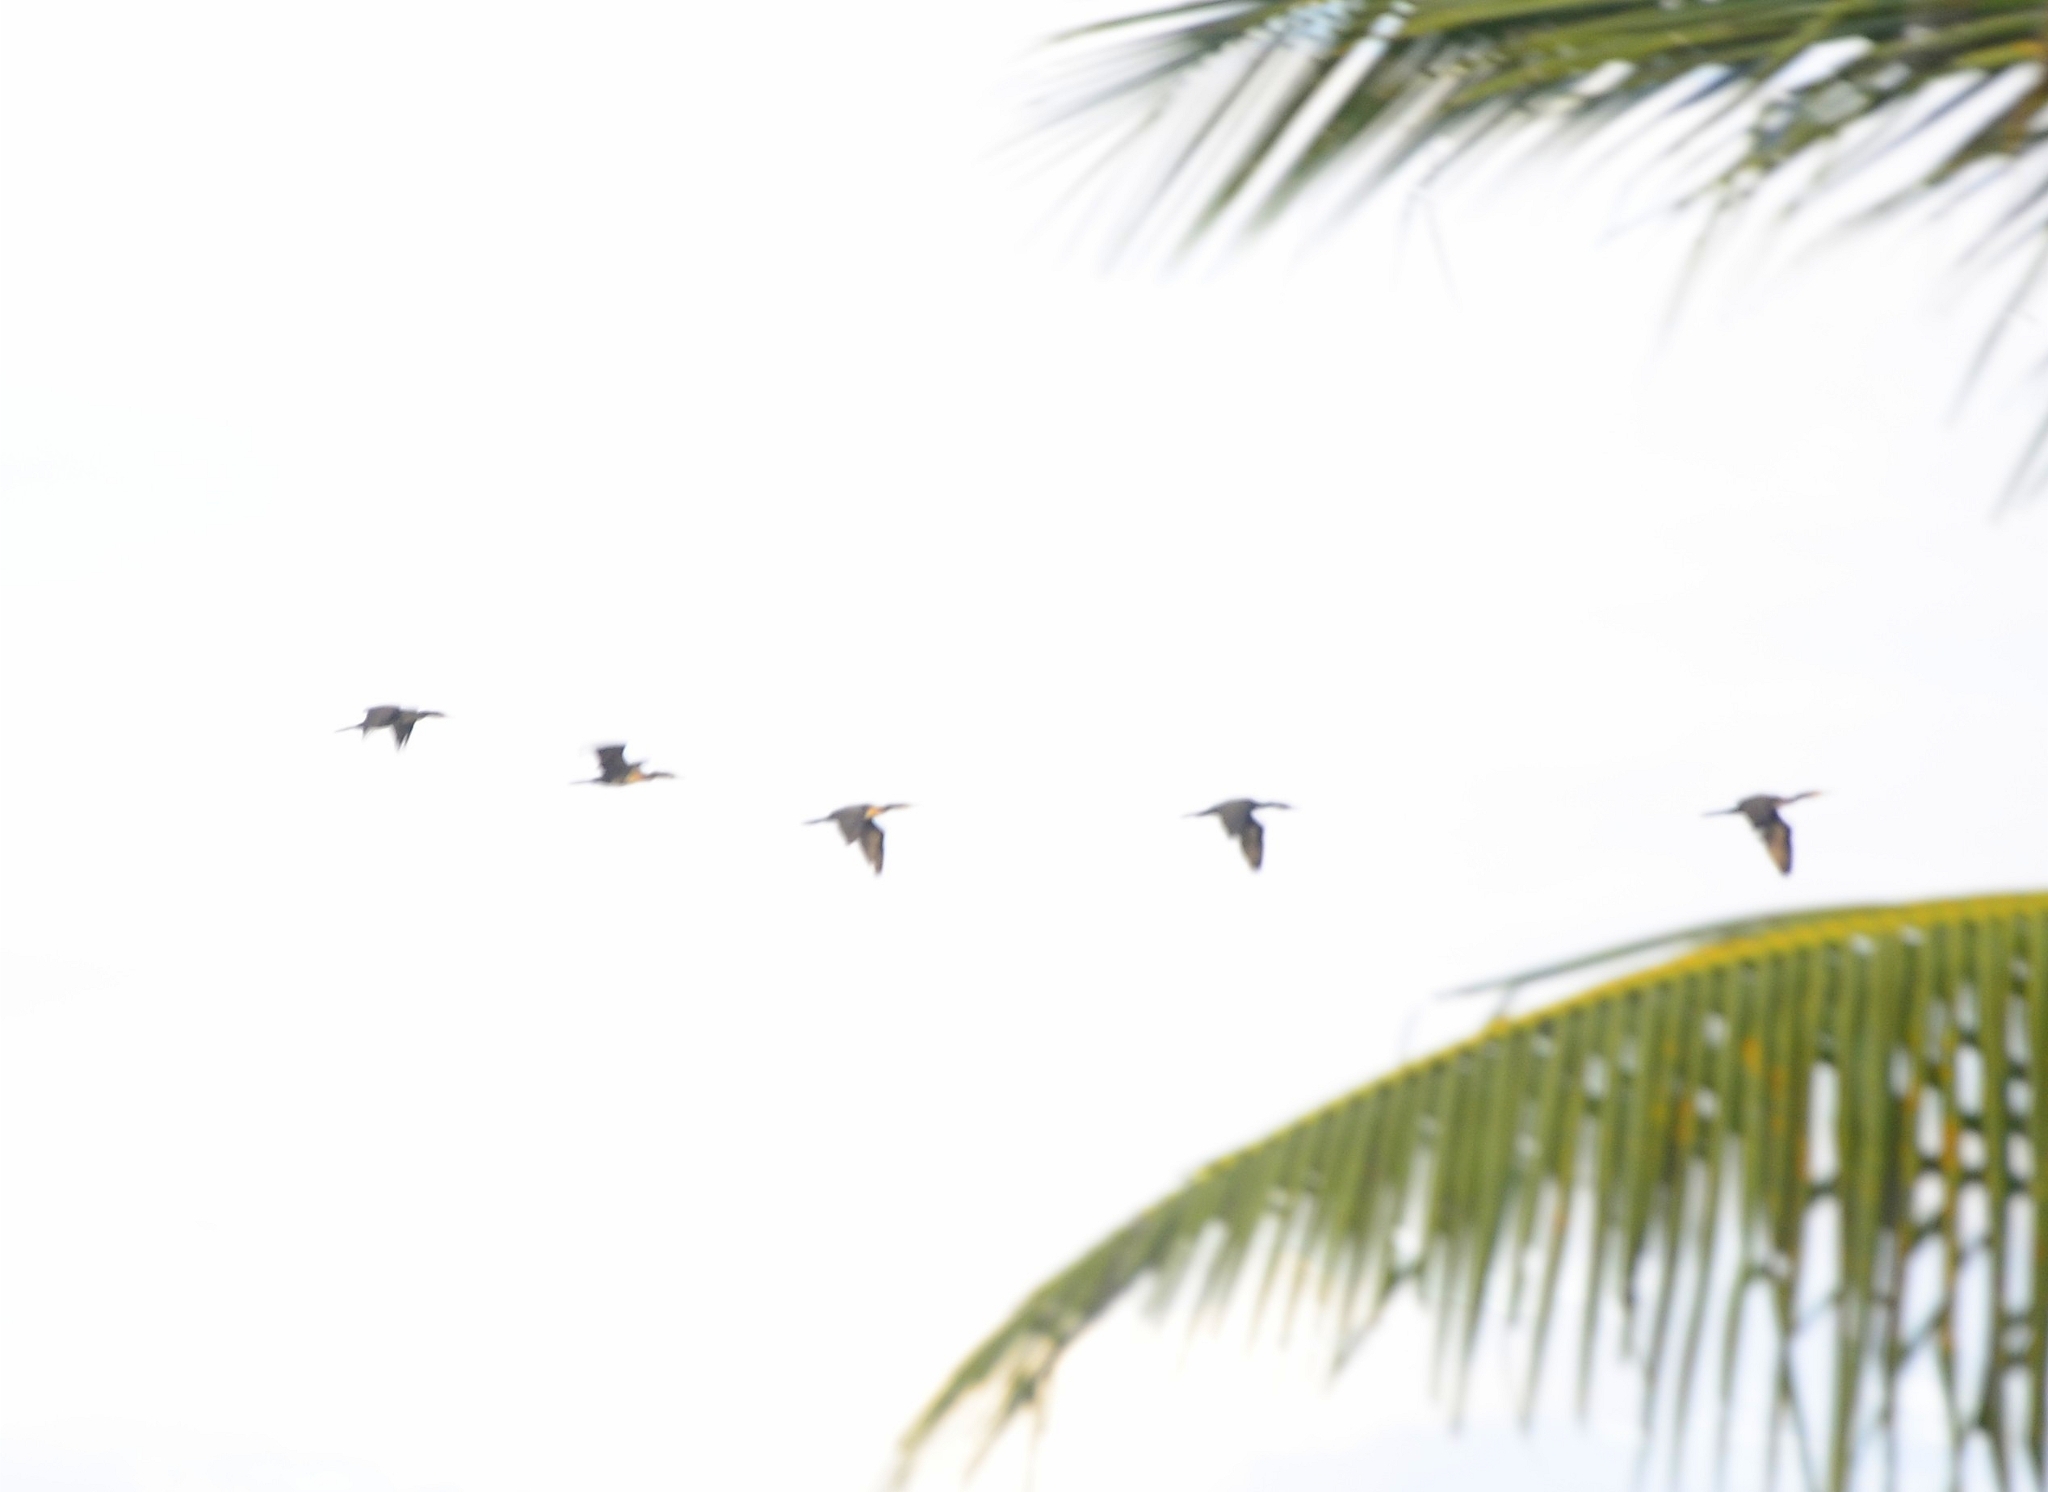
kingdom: Animalia
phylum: Chordata
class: Aves
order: Suliformes
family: Phalacrocoracidae
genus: Phalacrocorax
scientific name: Phalacrocorax fuscicollis
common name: Indian cormorant
